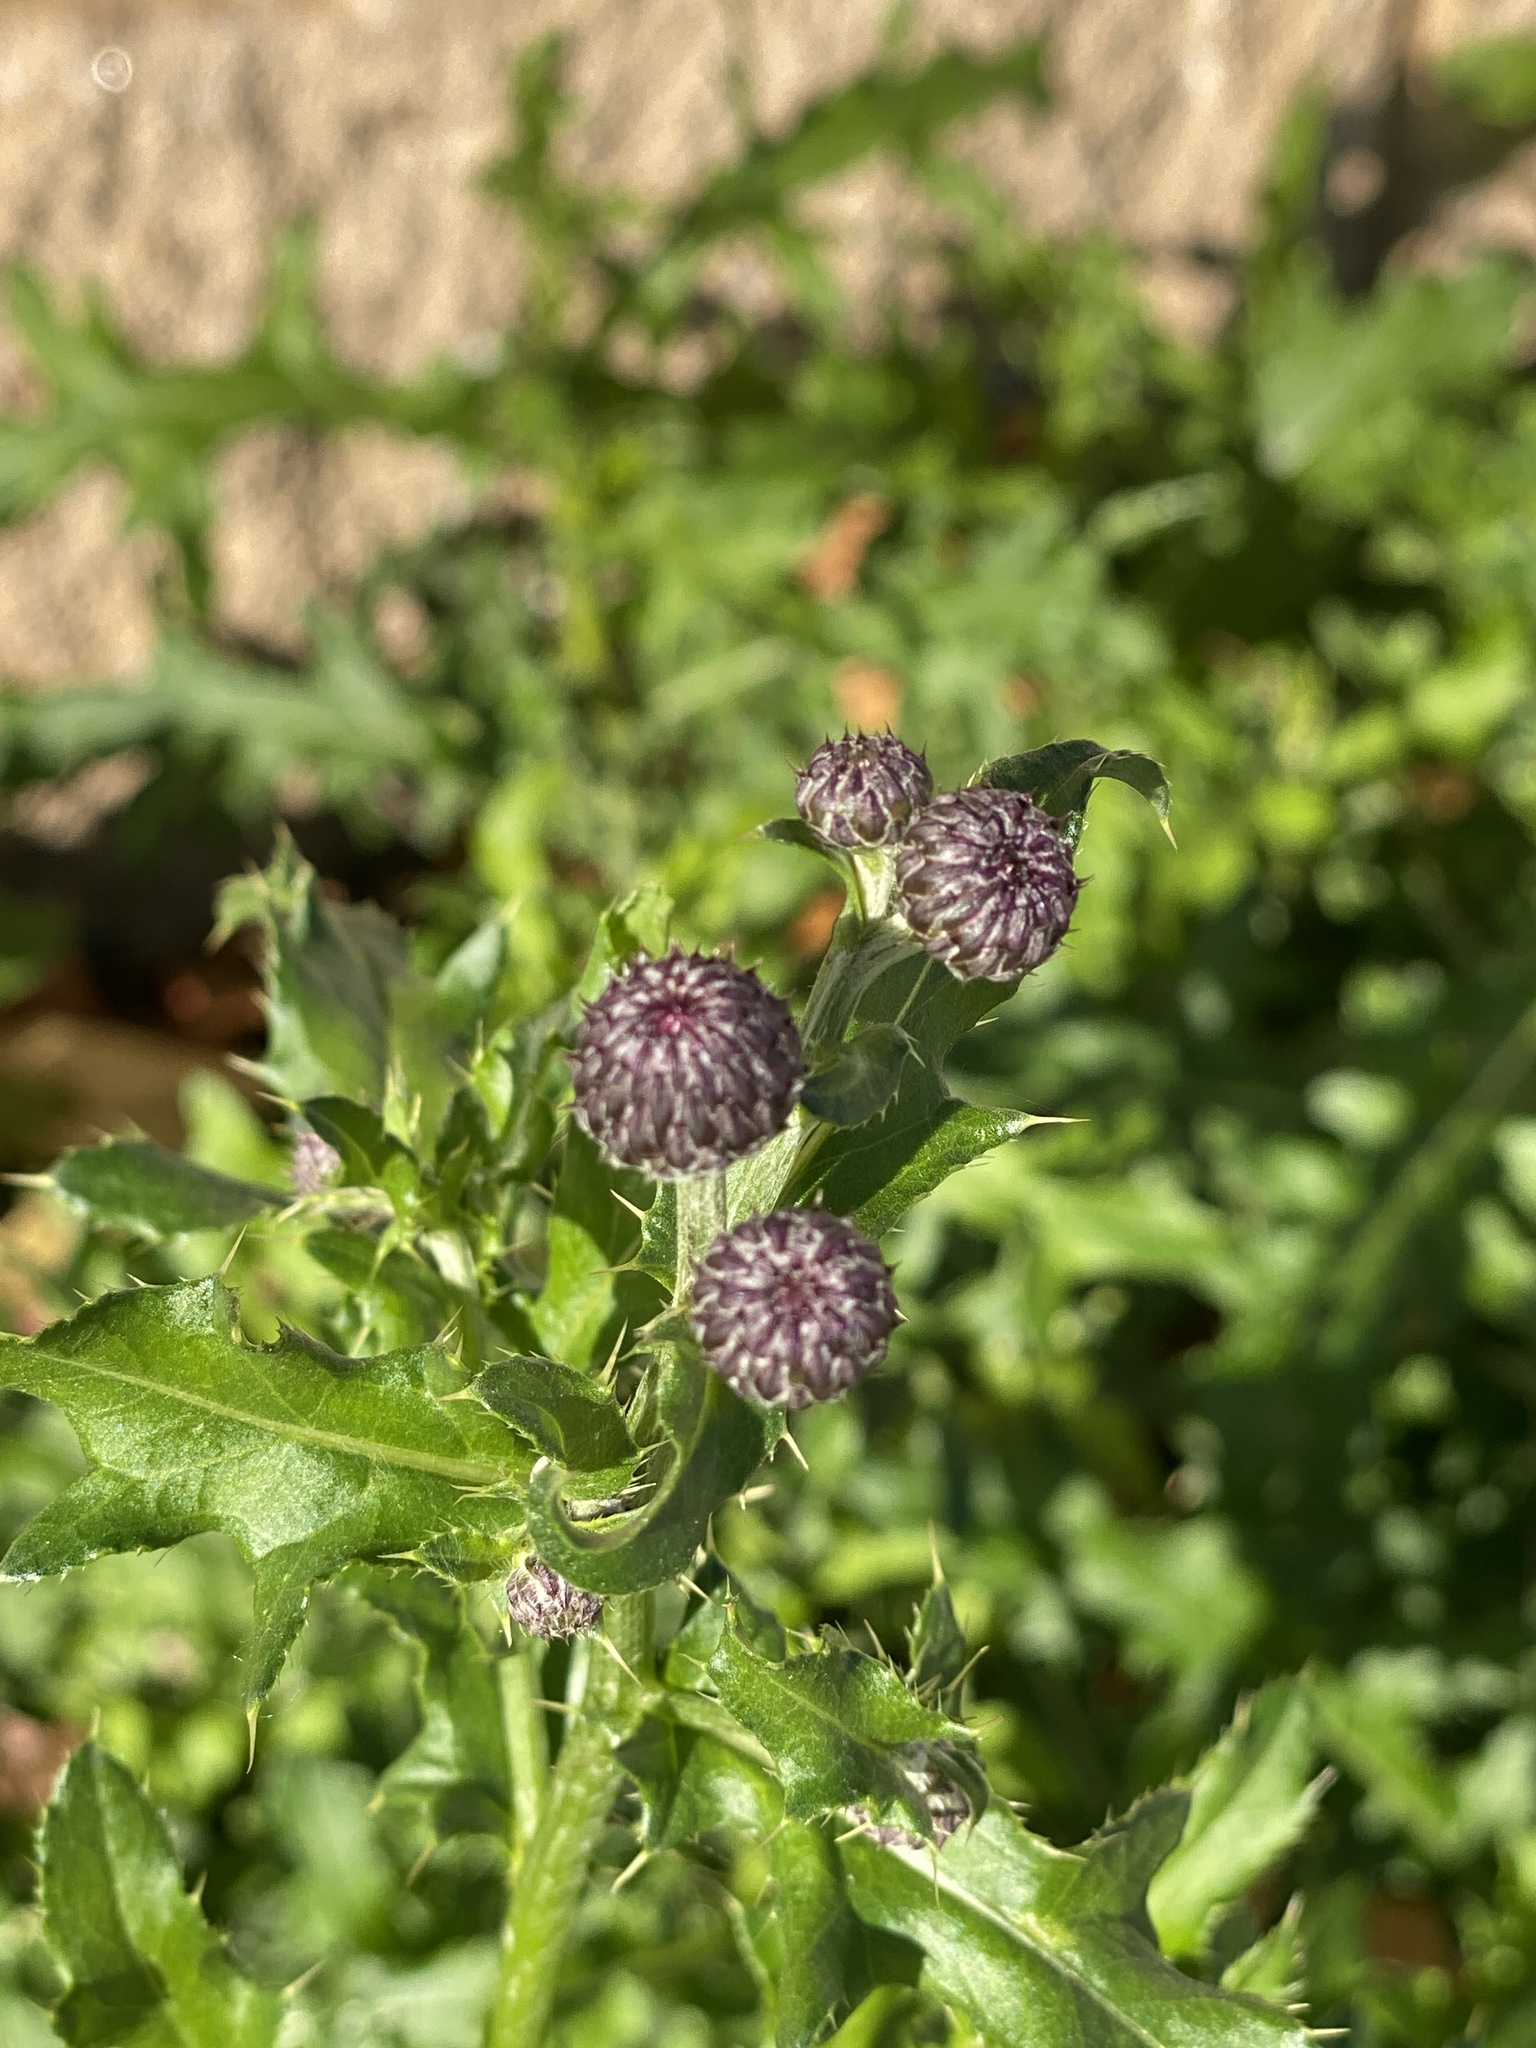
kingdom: Plantae
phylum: Tracheophyta
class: Magnoliopsida
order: Asterales
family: Asteraceae
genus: Cirsium
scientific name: Cirsium arvense
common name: Creeping thistle
